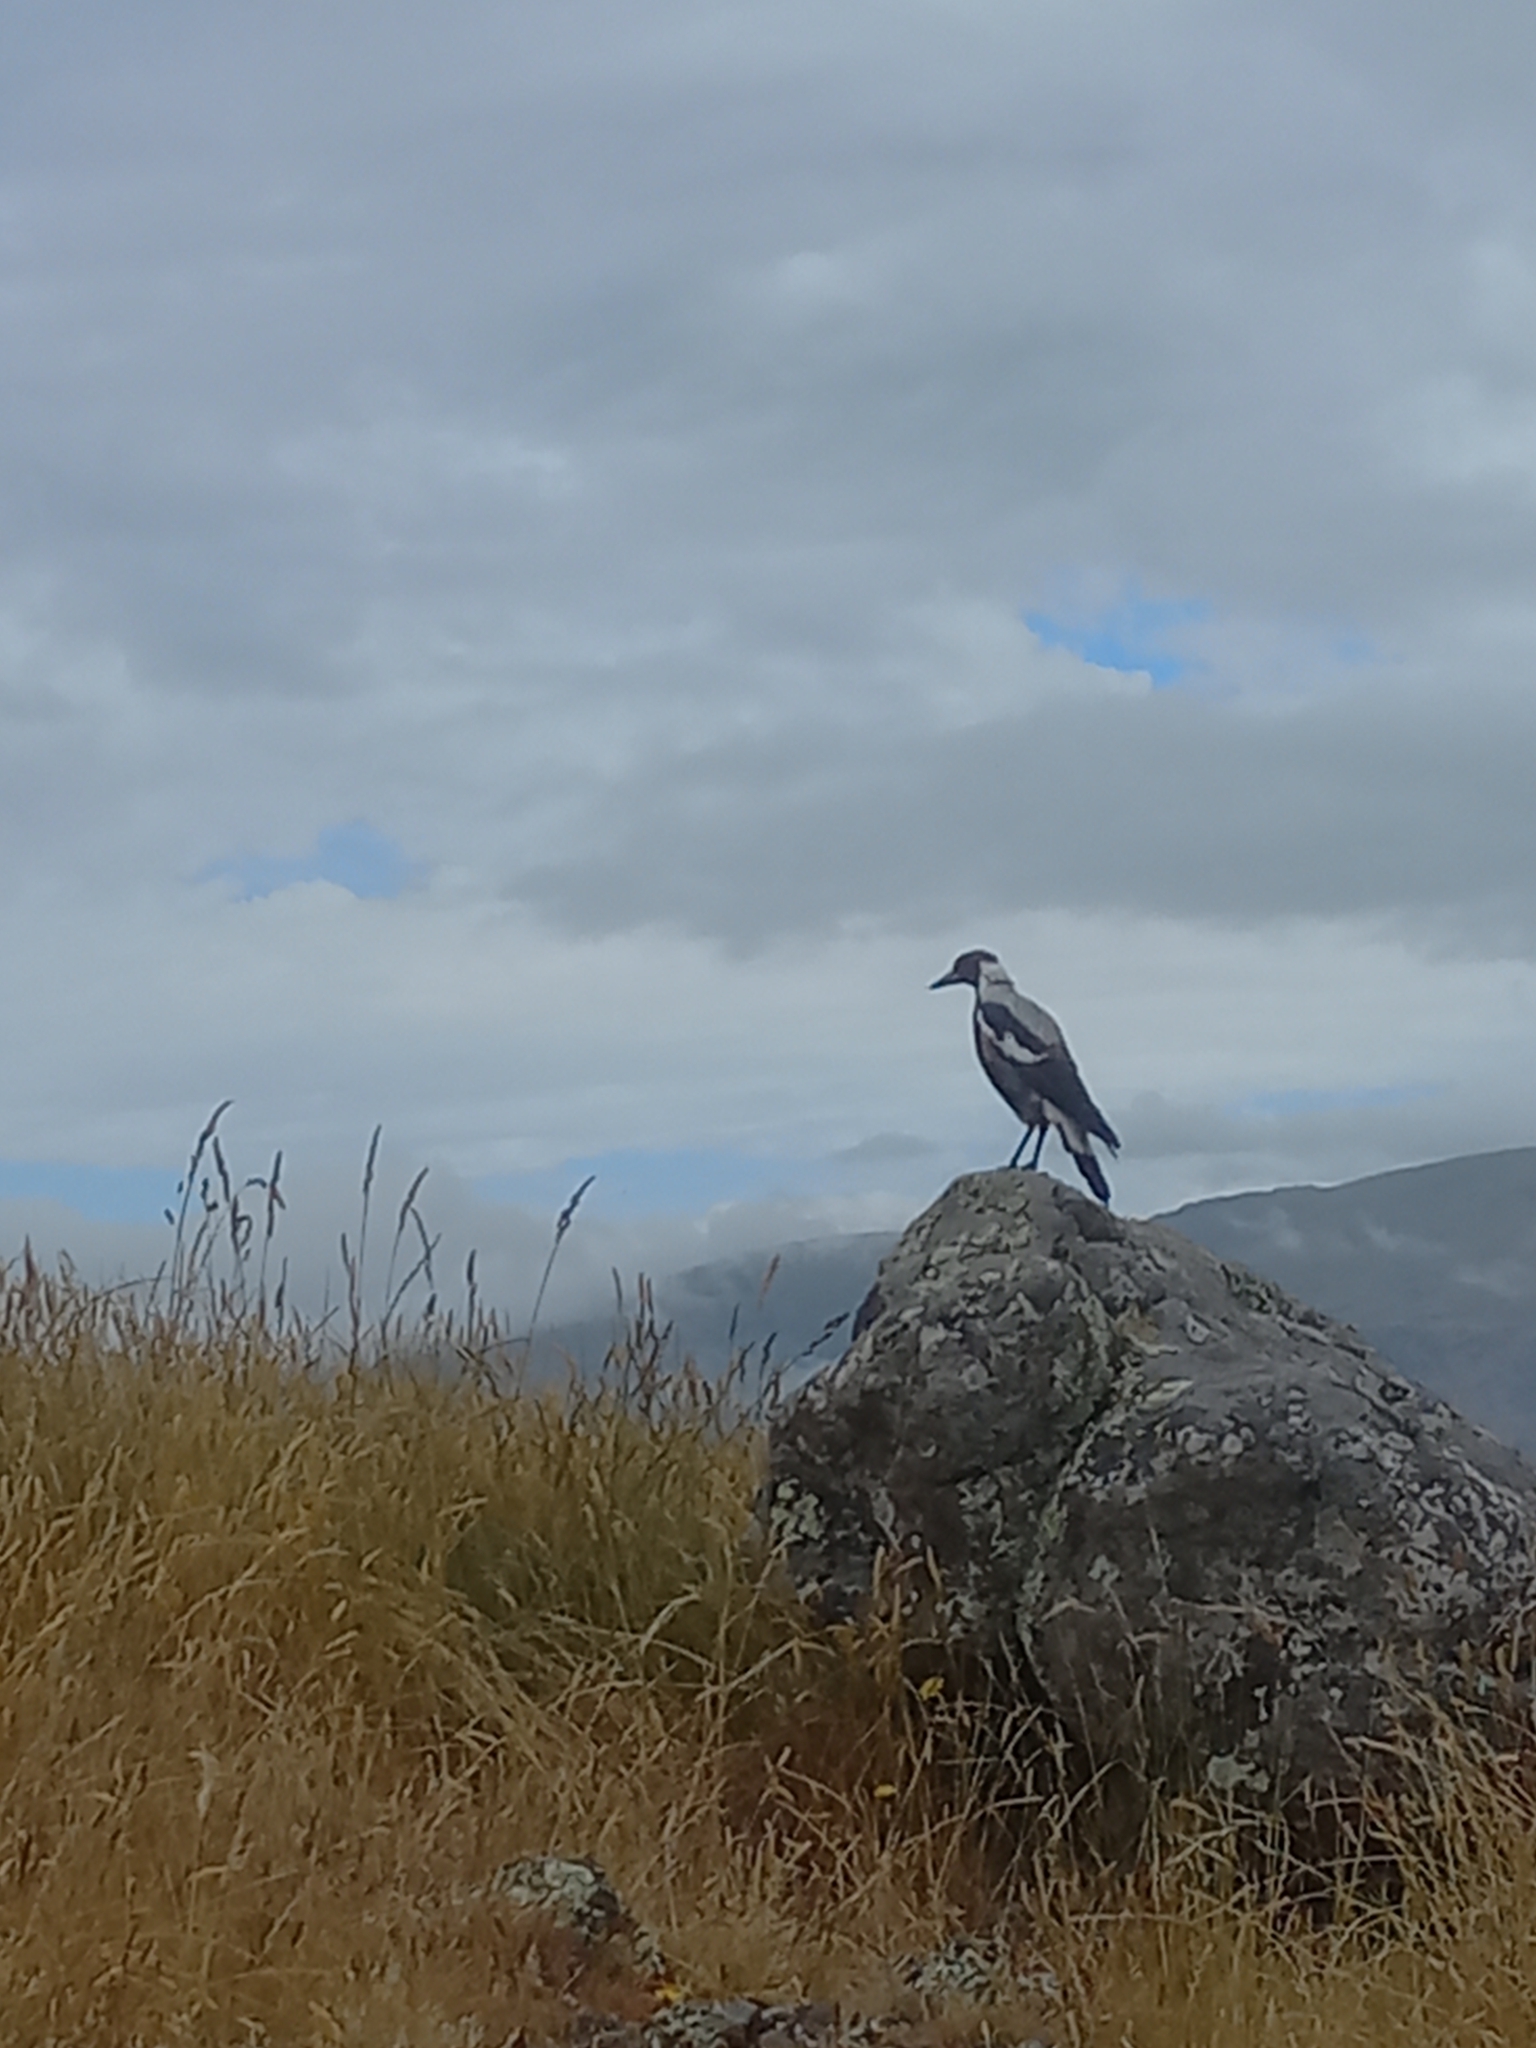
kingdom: Animalia
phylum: Chordata
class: Aves
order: Passeriformes
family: Cracticidae
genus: Gymnorhina
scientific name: Gymnorhina tibicen
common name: Australian magpie
